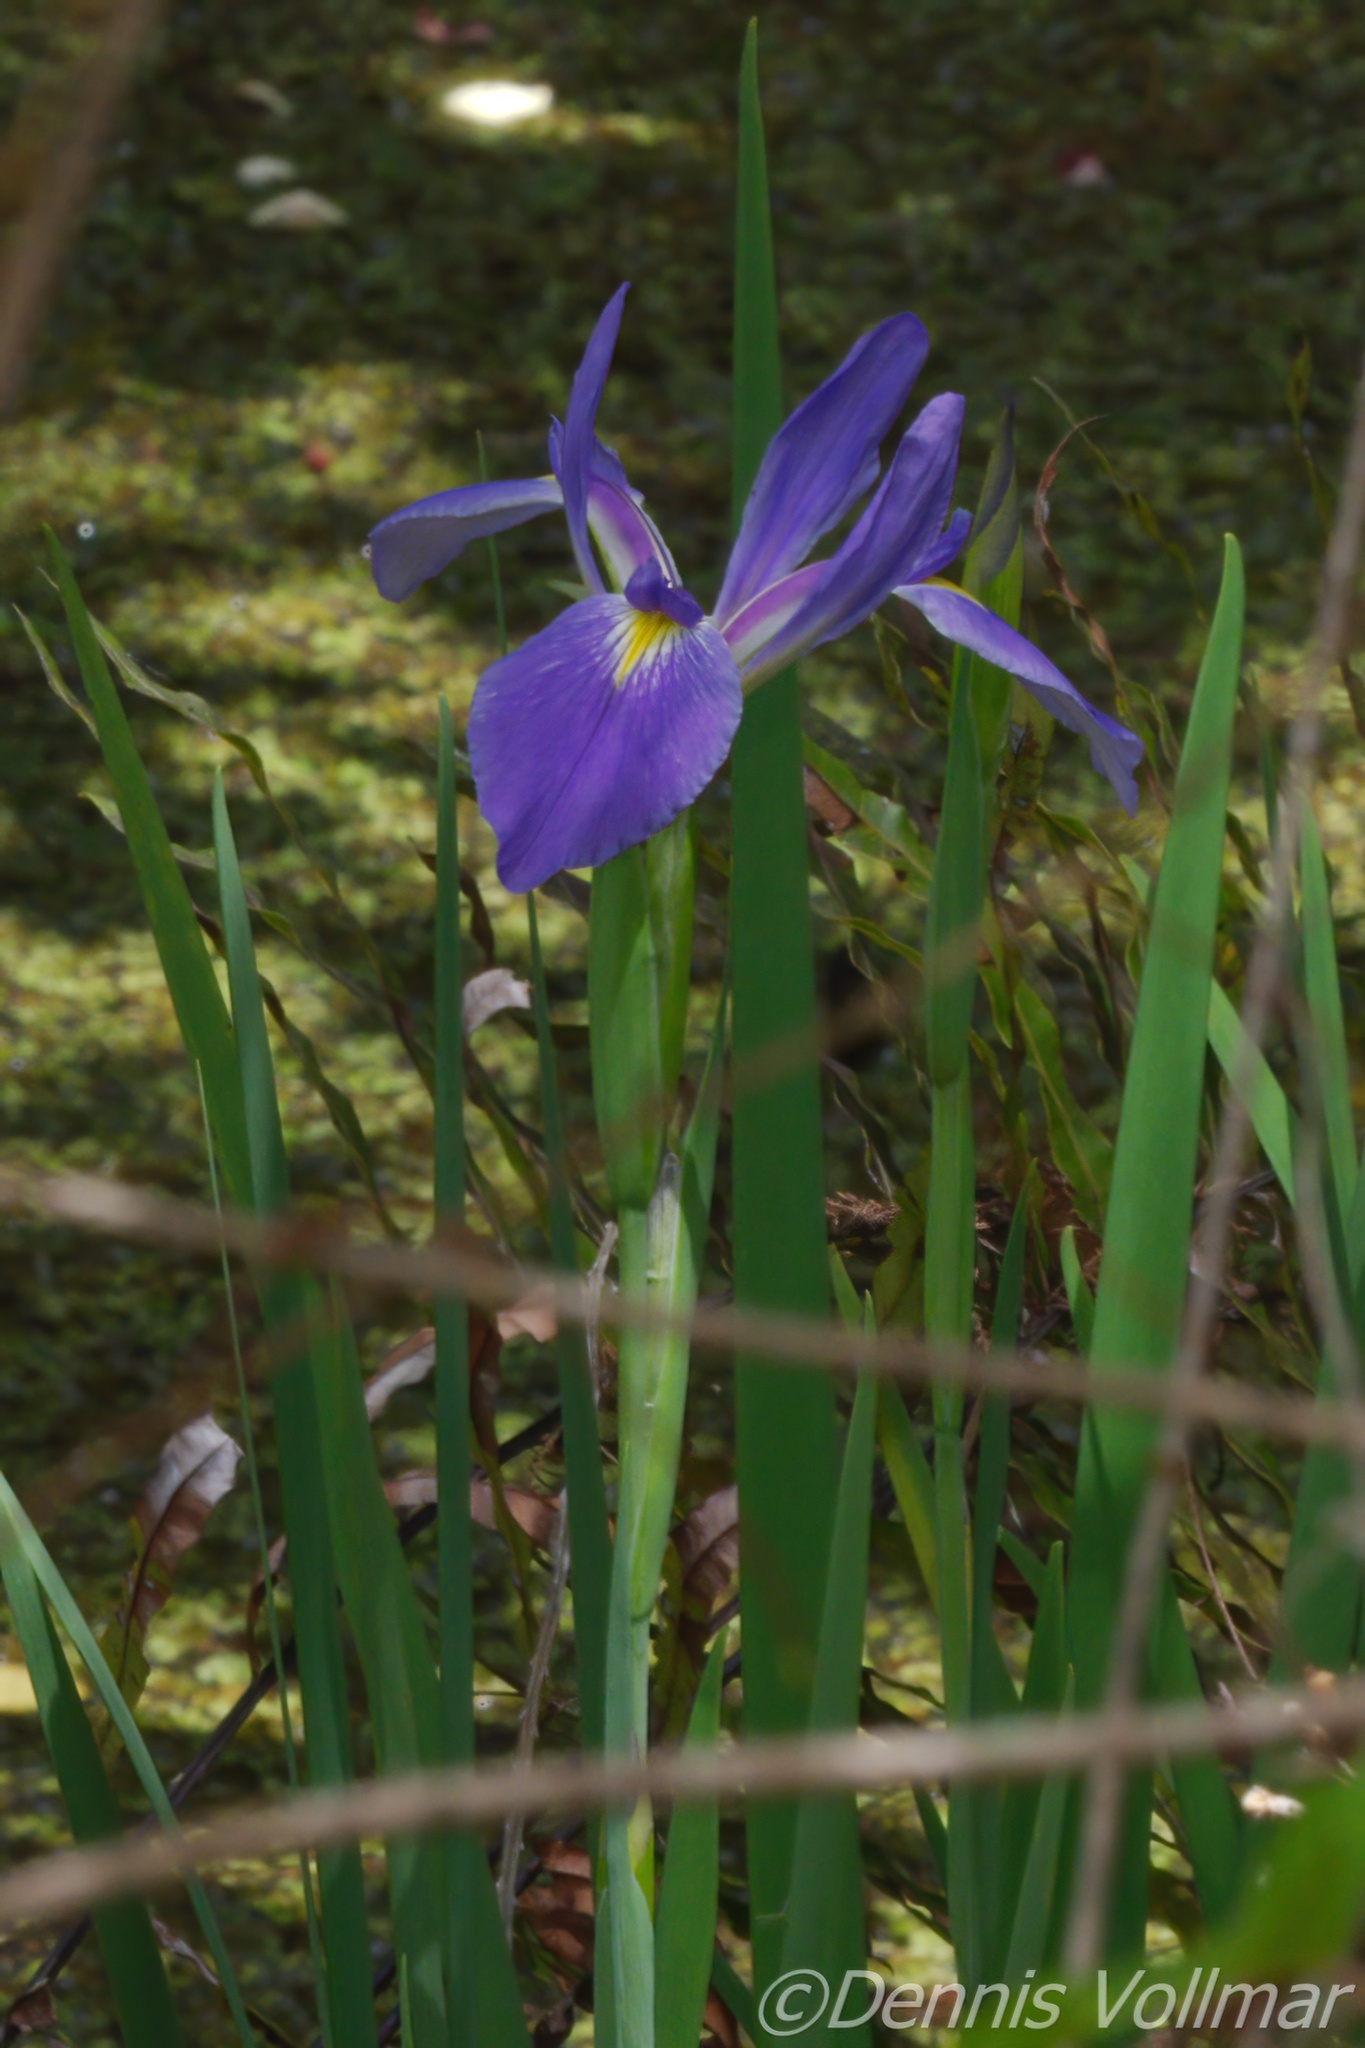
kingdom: Plantae
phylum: Tracheophyta
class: Liliopsida
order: Asparagales
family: Iridaceae
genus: Iris
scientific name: Iris savannarum
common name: Prairie iris
